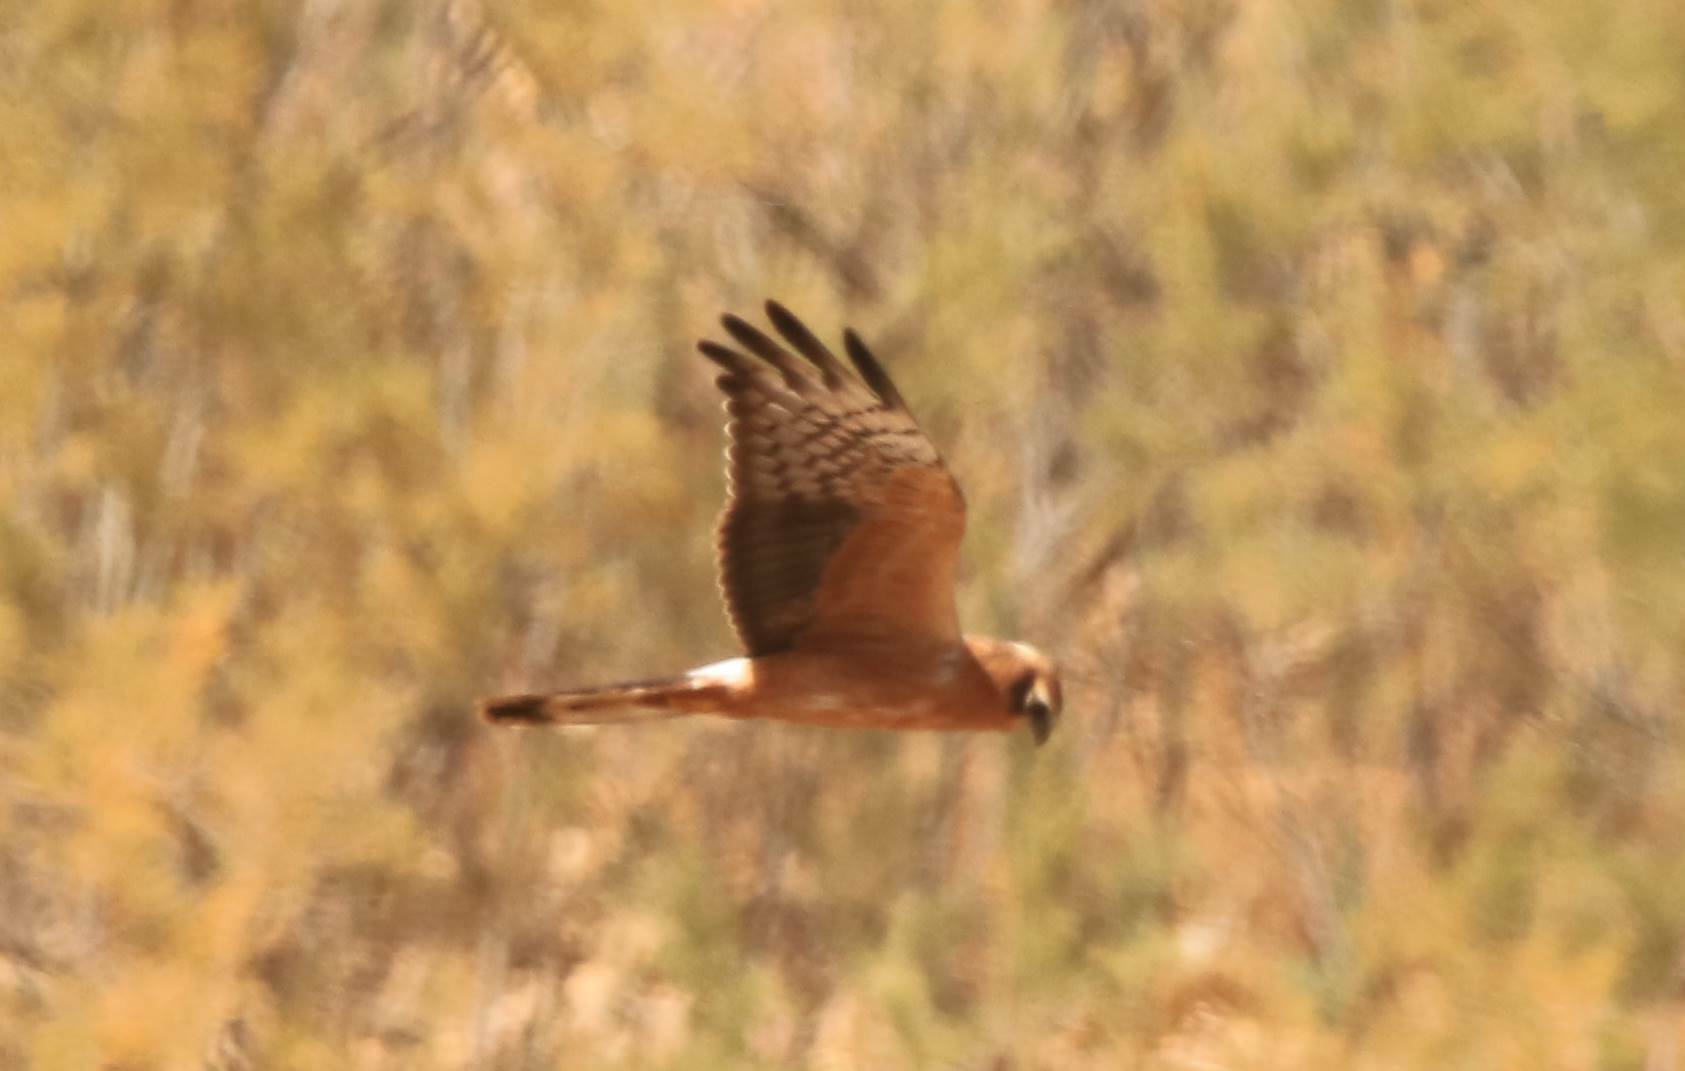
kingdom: Animalia
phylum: Chordata
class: Aves
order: Accipitriformes
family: Accipitridae
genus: Circus
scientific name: Circus pygargus
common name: Montagu's harrier
